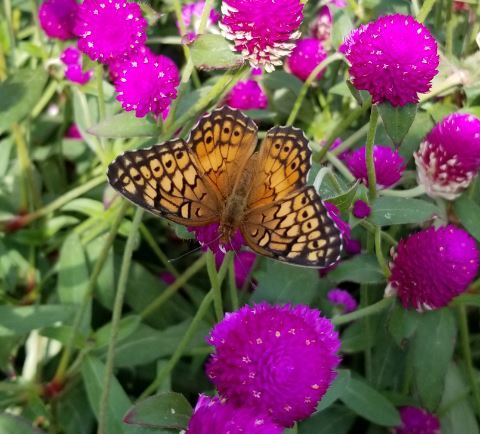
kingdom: Animalia
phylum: Arthropoda
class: Insecta
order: Lepidoptera
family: Nymphalidae
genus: Euptoieta
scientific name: Euptoieta claudia
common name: Variegated fritillary
